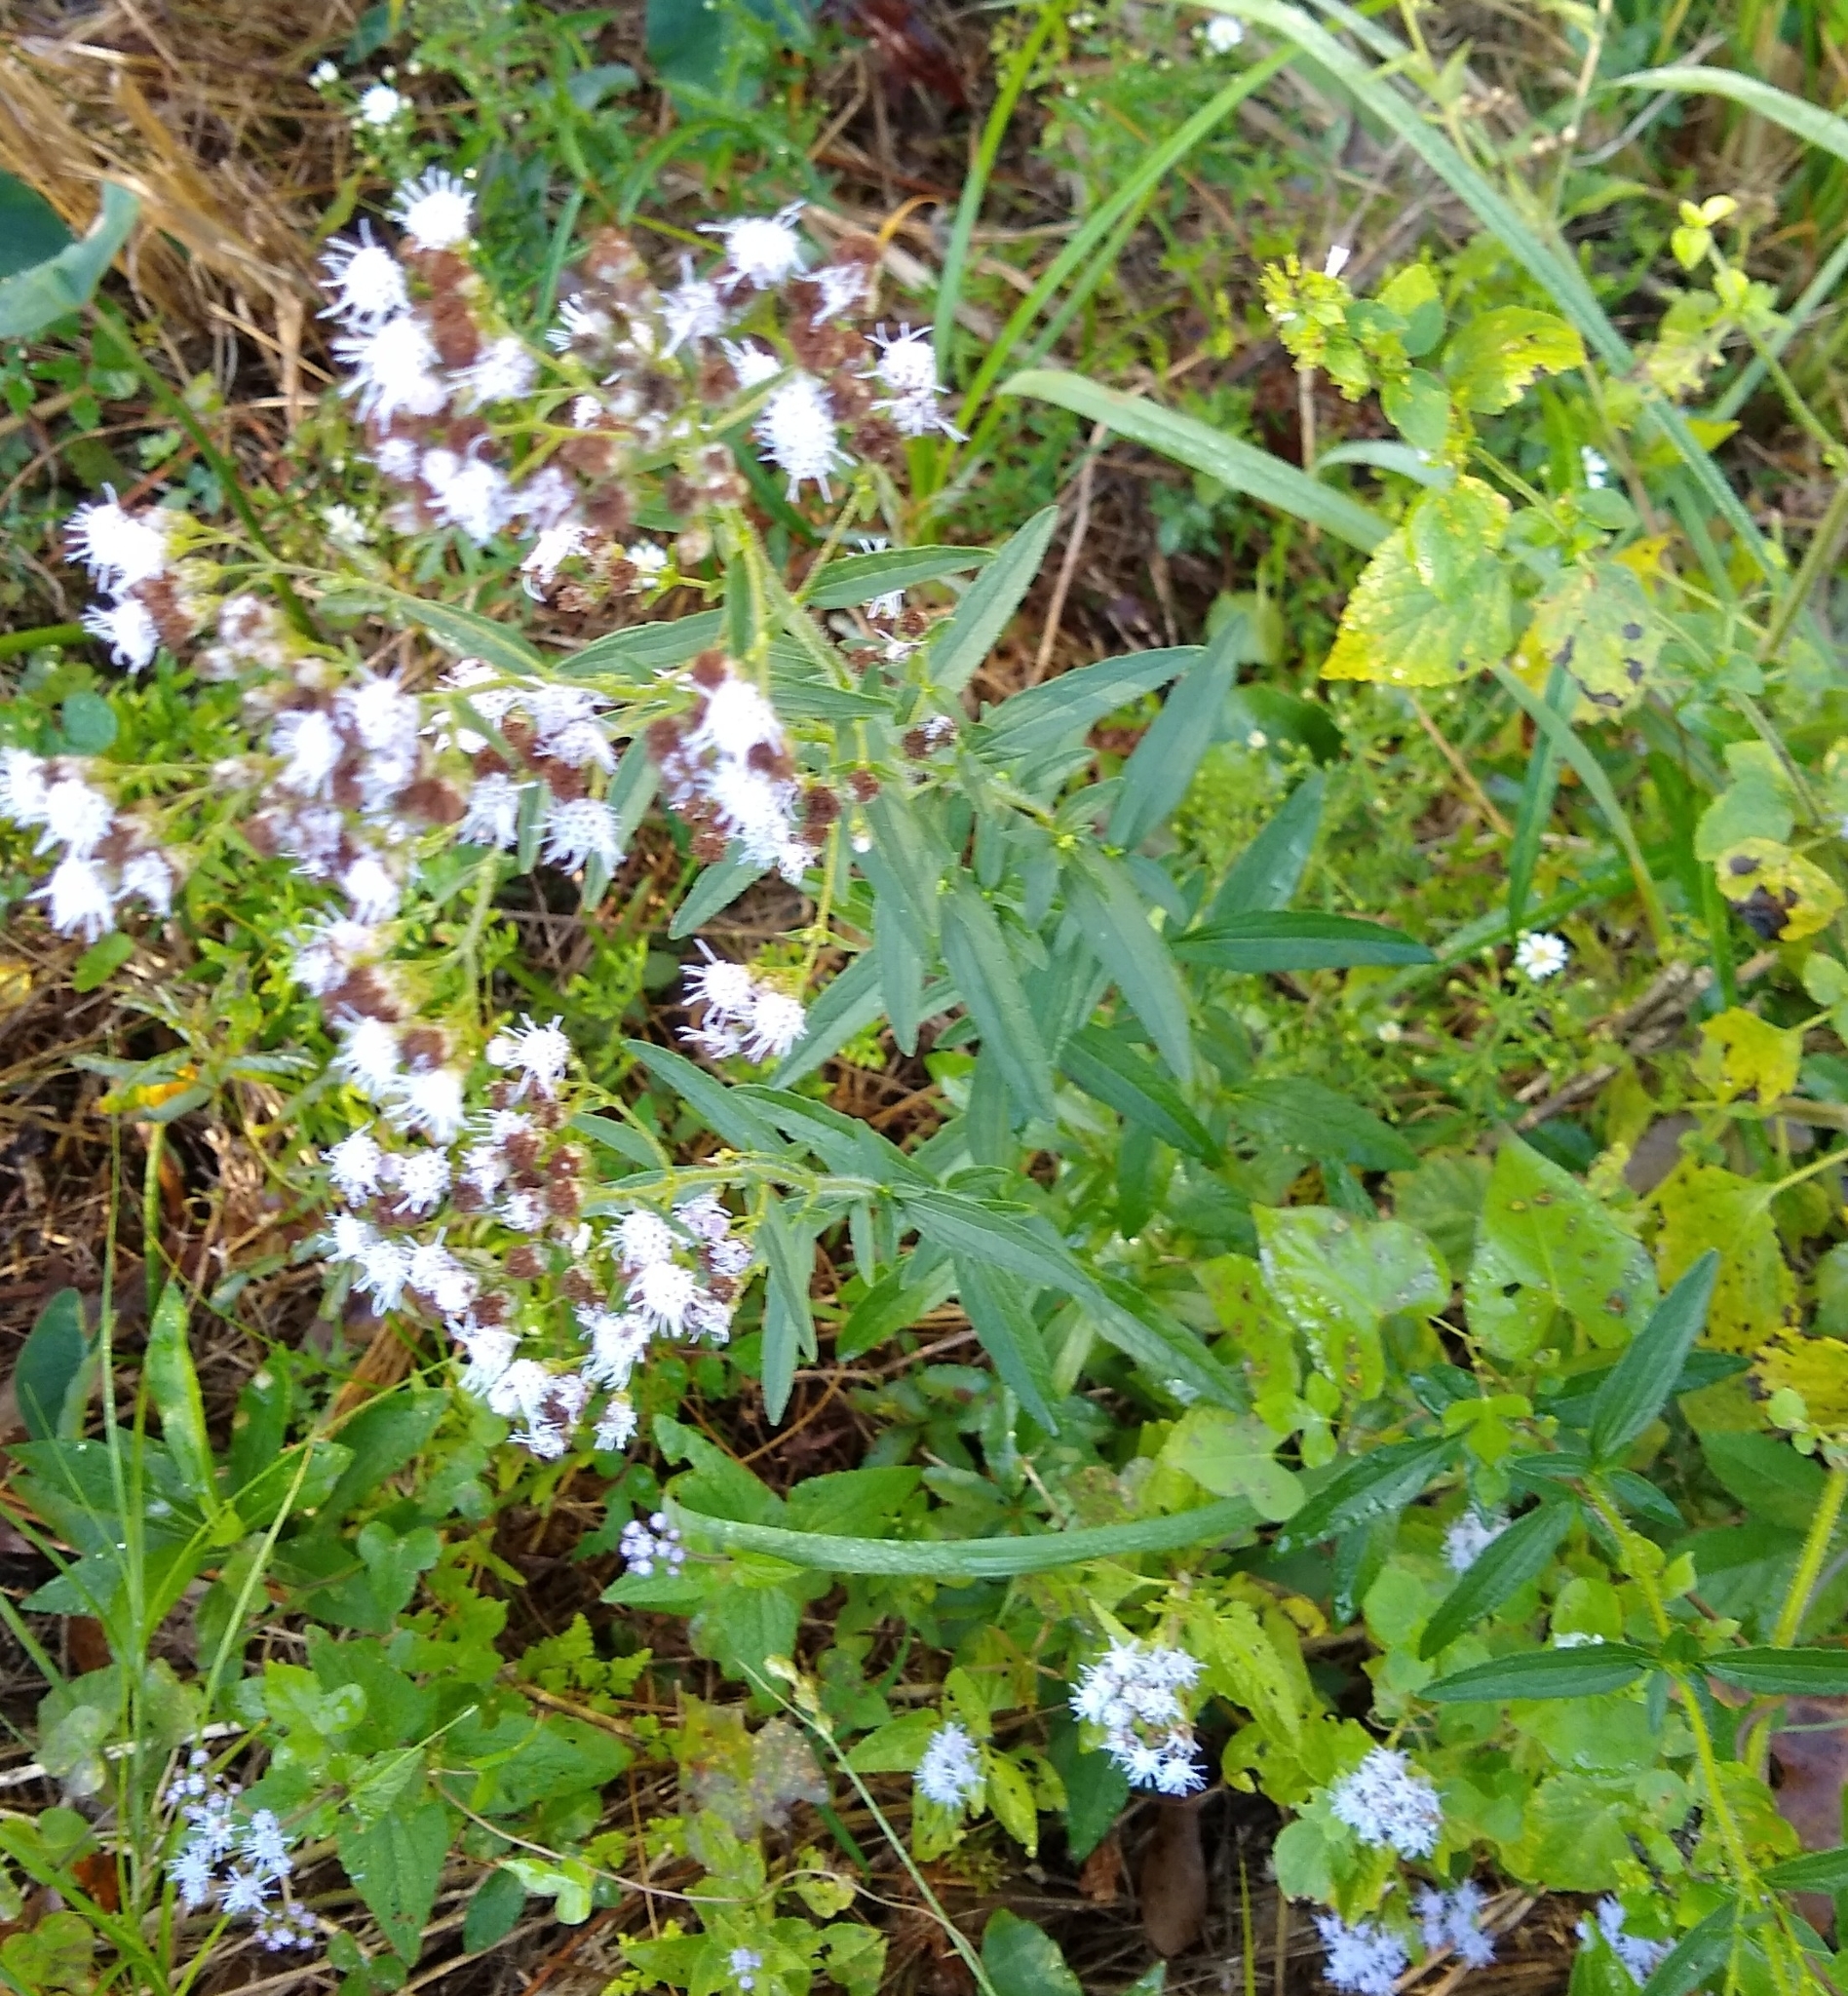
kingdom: Plantae
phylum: Tracheophyta
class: Magnoliopsida
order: Asterales
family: Asteraceae
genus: Chromolaena
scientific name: Chromolaena ivifolia
